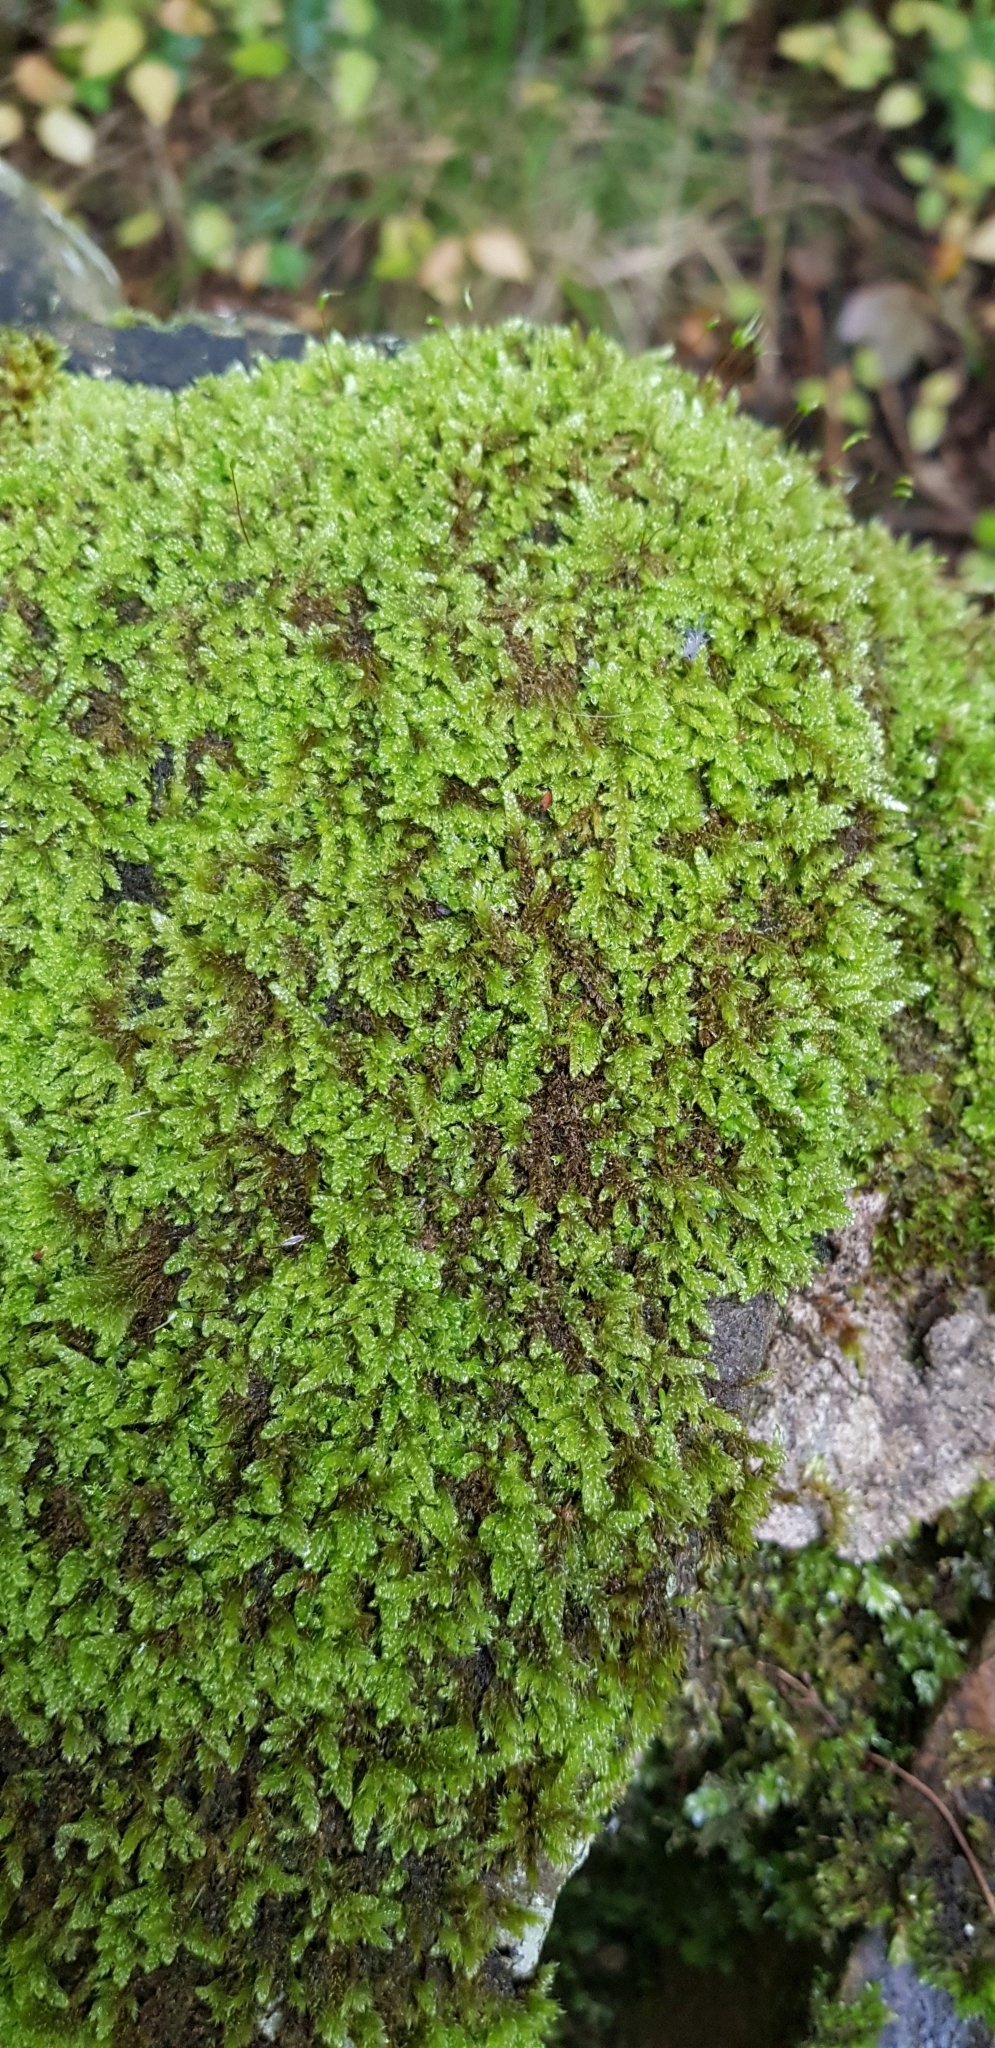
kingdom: Plantae
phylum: Bryophyta
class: Bryopsida
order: Hypnales
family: Hypnaceae
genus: Hypnum
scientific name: Hypnum cupressiforme
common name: Cypress-leaved plait-moss
